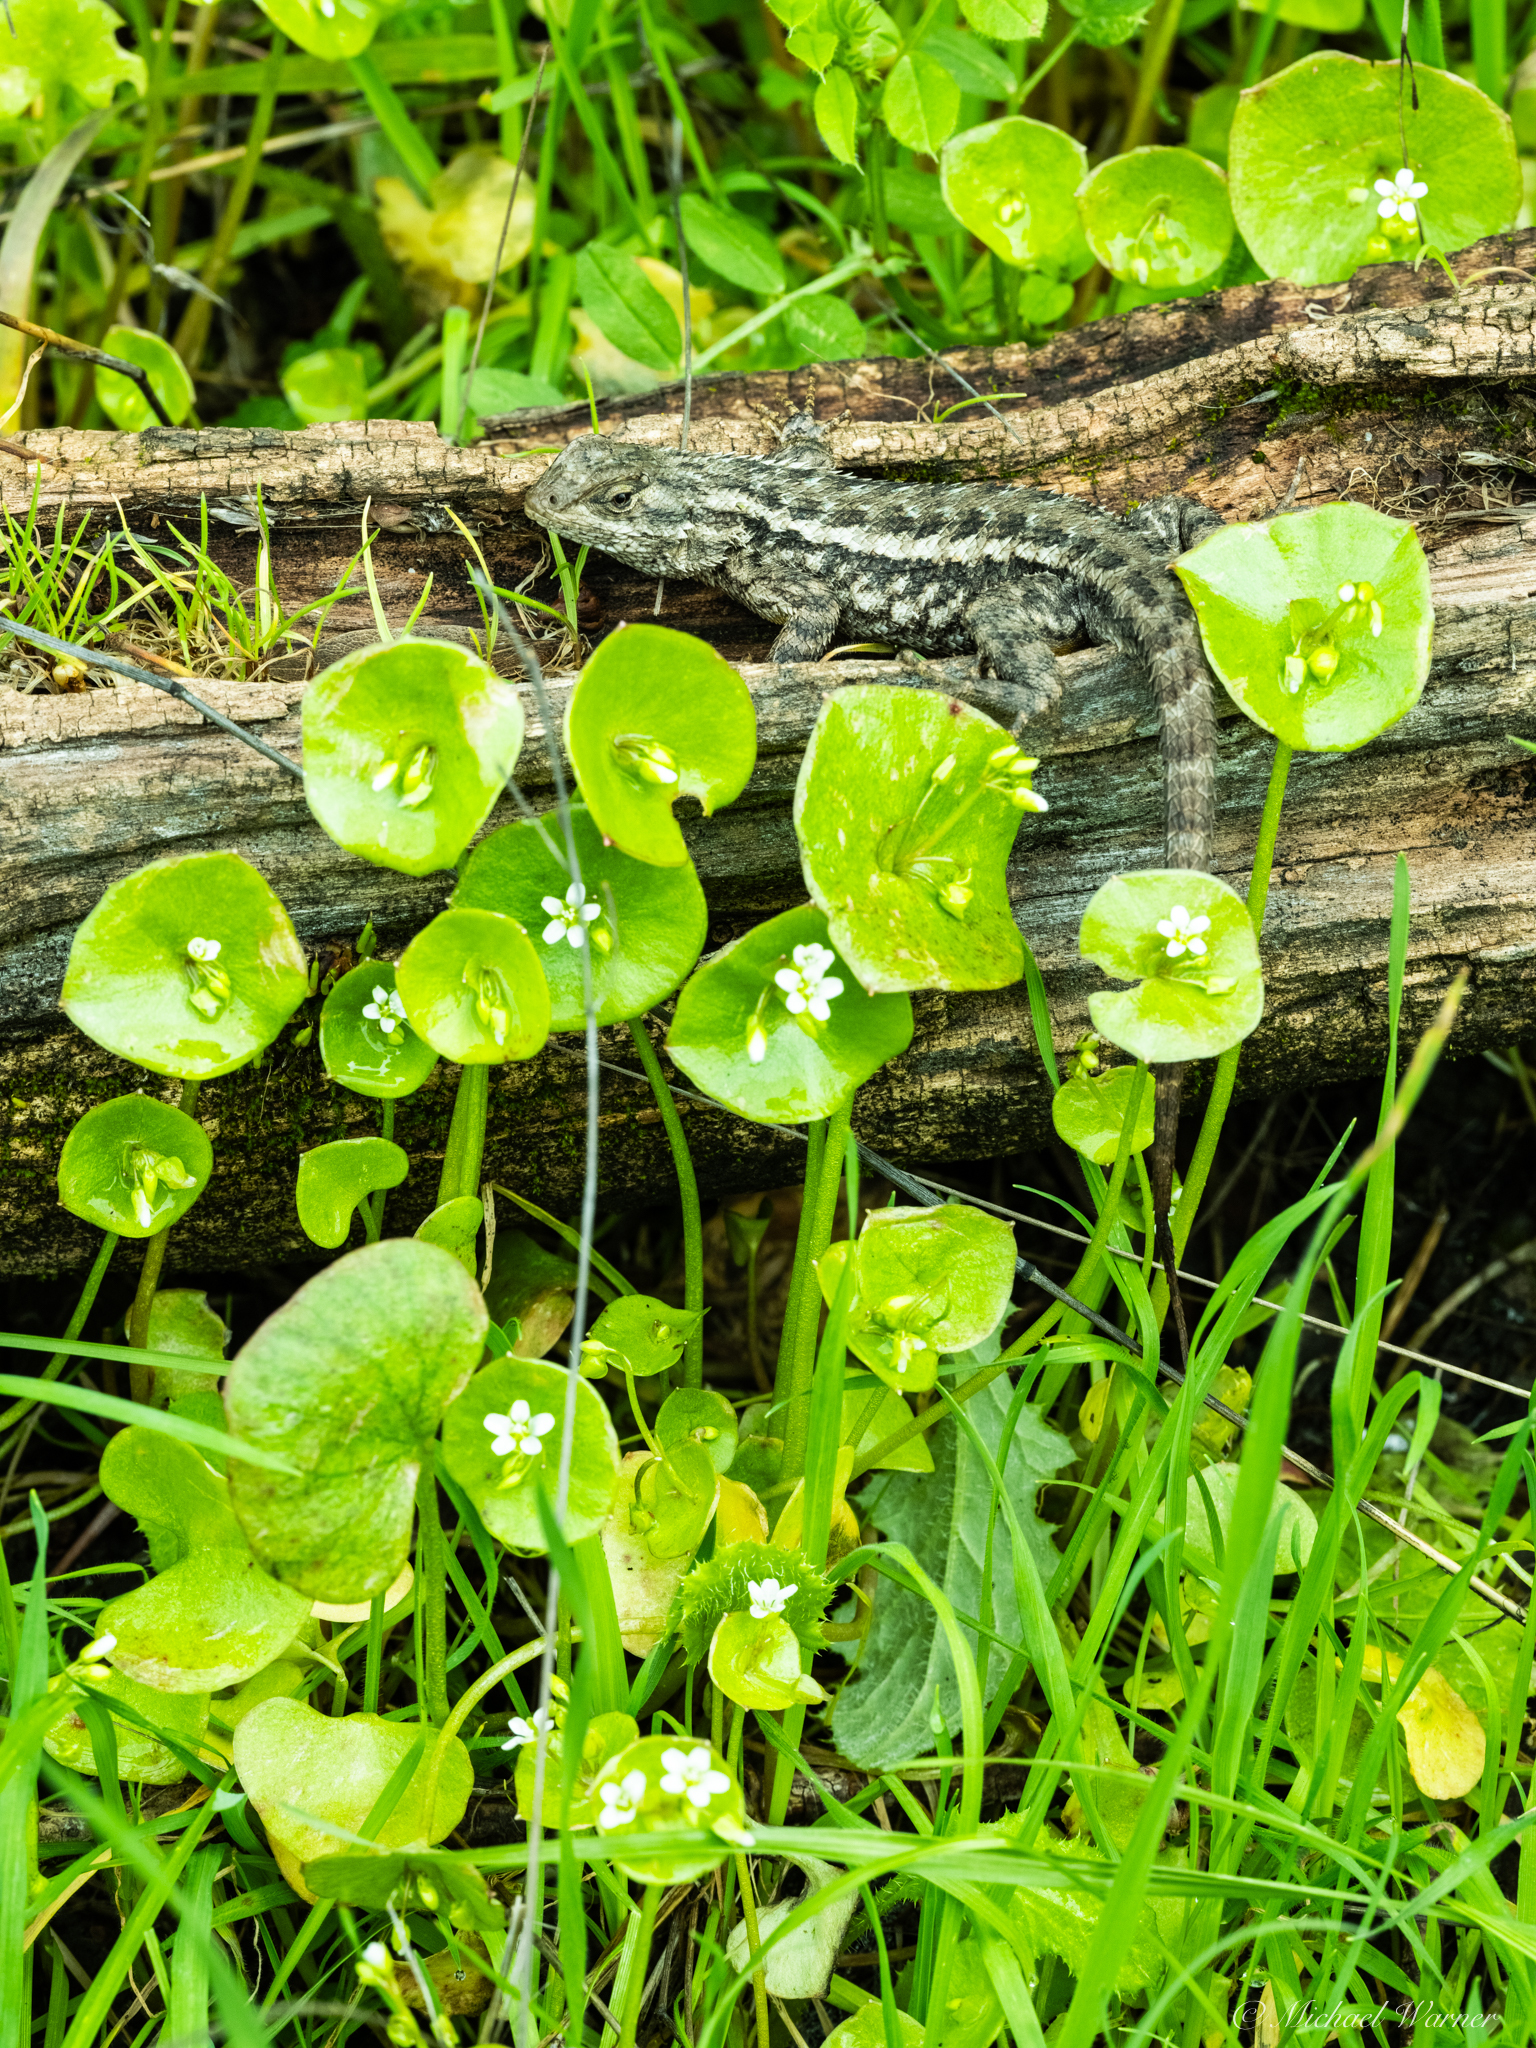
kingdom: Animalia
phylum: Chordata
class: Squamata
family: Phrynosomatidae
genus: Sceloporus
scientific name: Sceloporus occidentalis
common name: Western fence lizard
